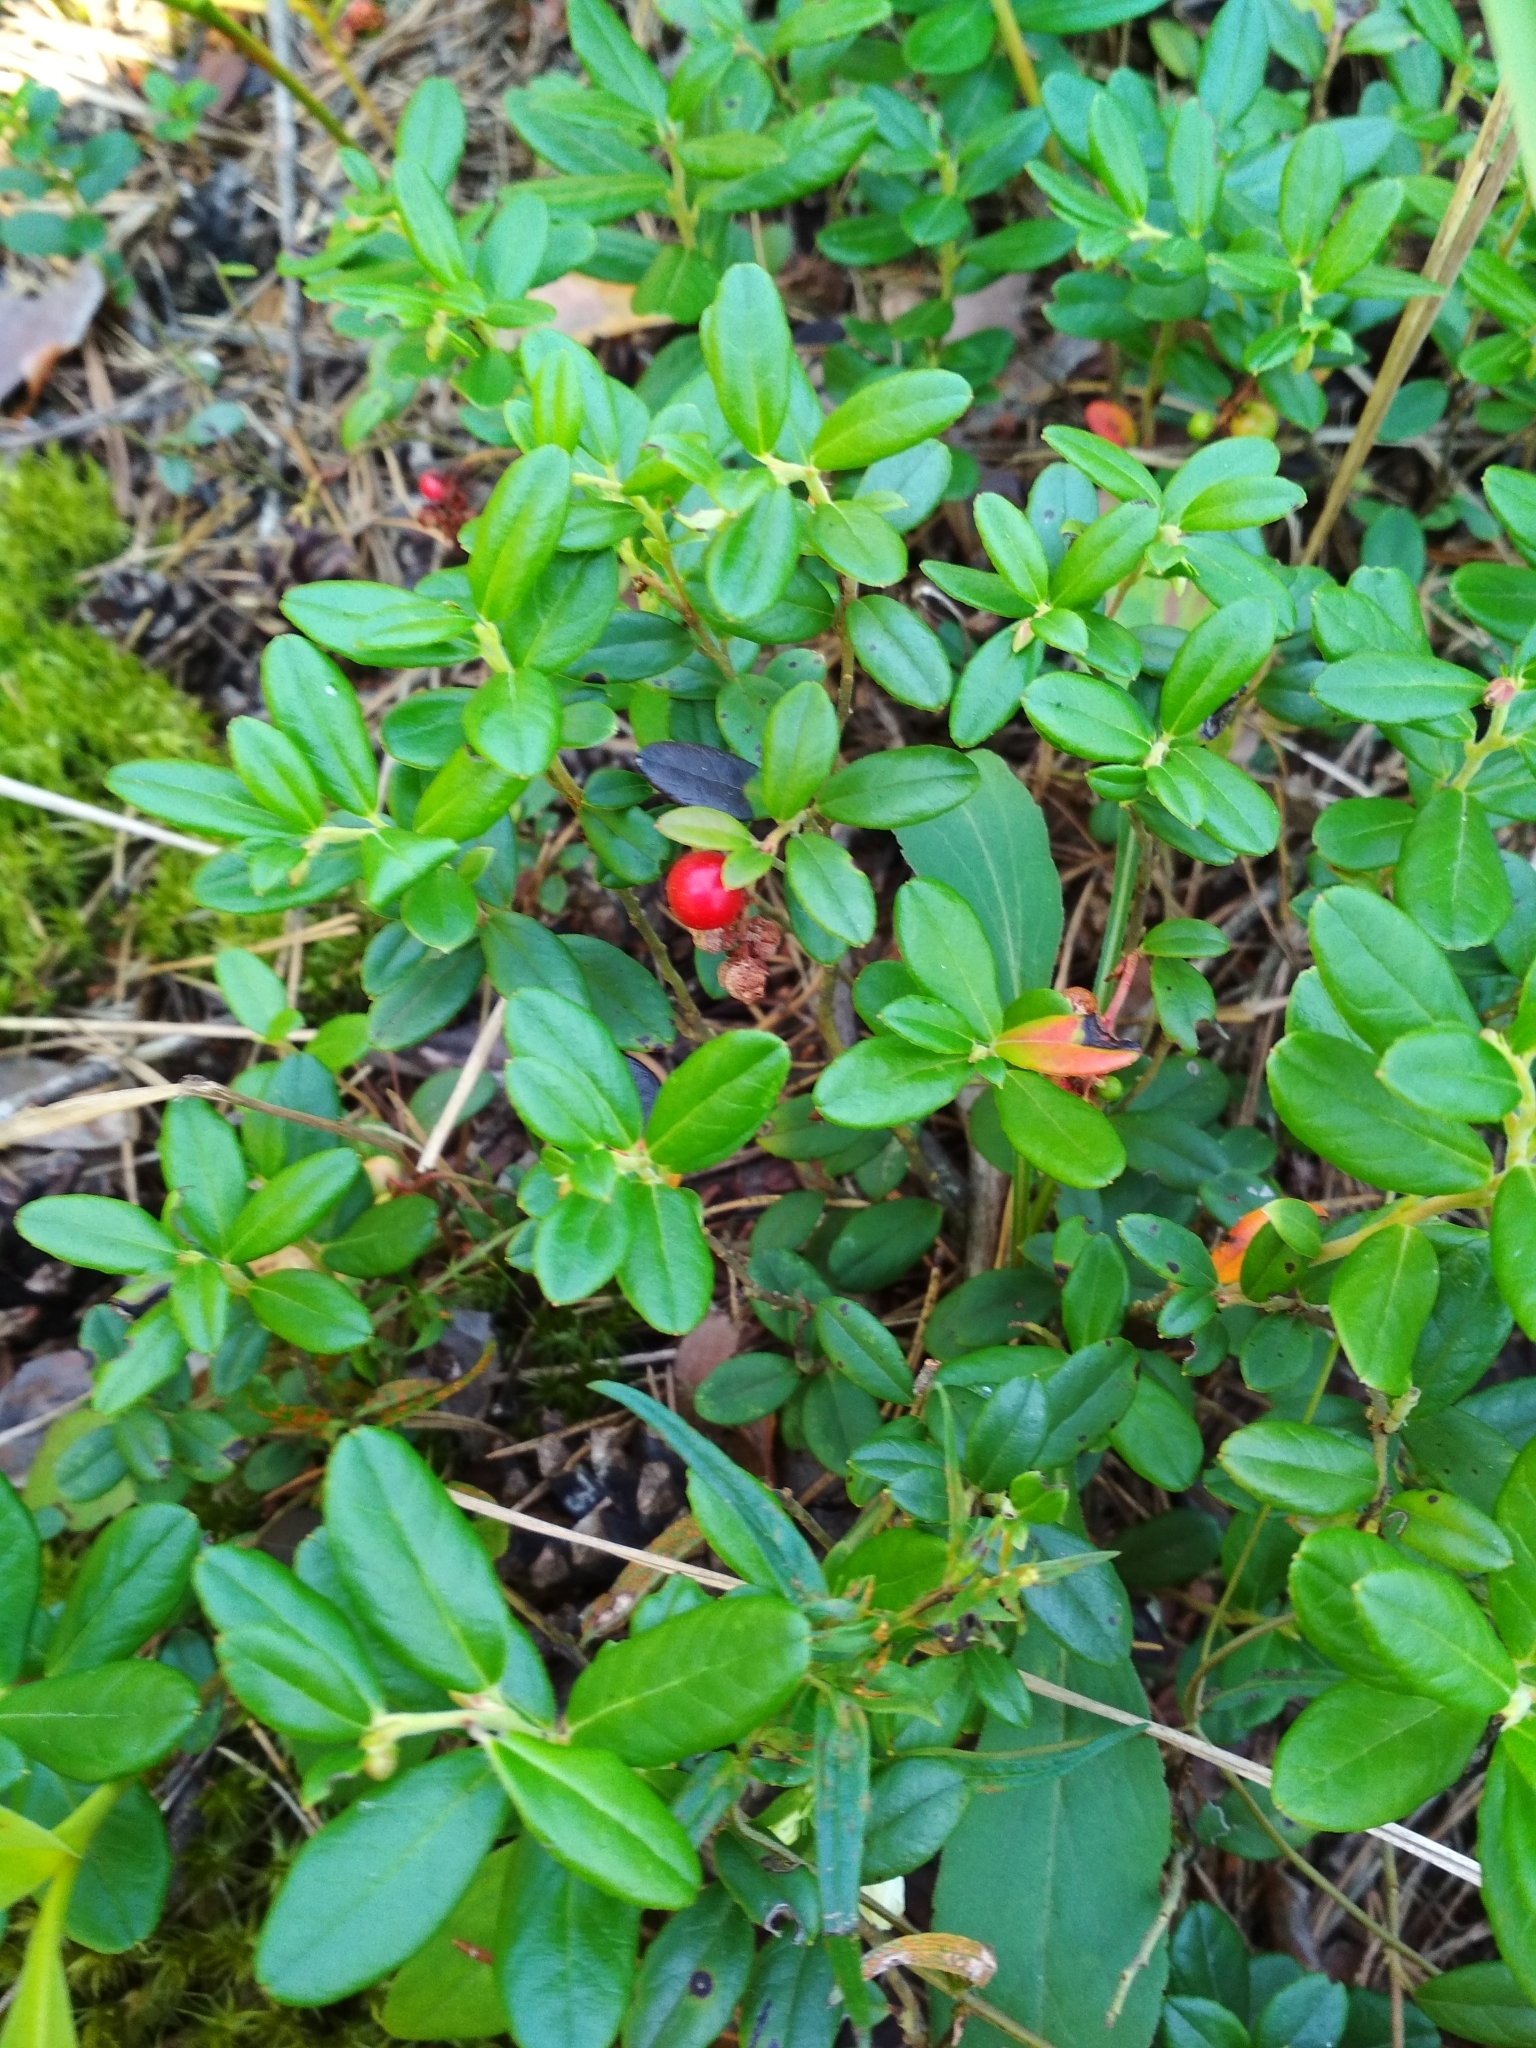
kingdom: Plantae
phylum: Tracheophyta
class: Magnoliopsida
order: Ericales
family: Ericaceae
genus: Vaccinium
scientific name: Vaccinium vitis-idaea
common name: Cowberry
